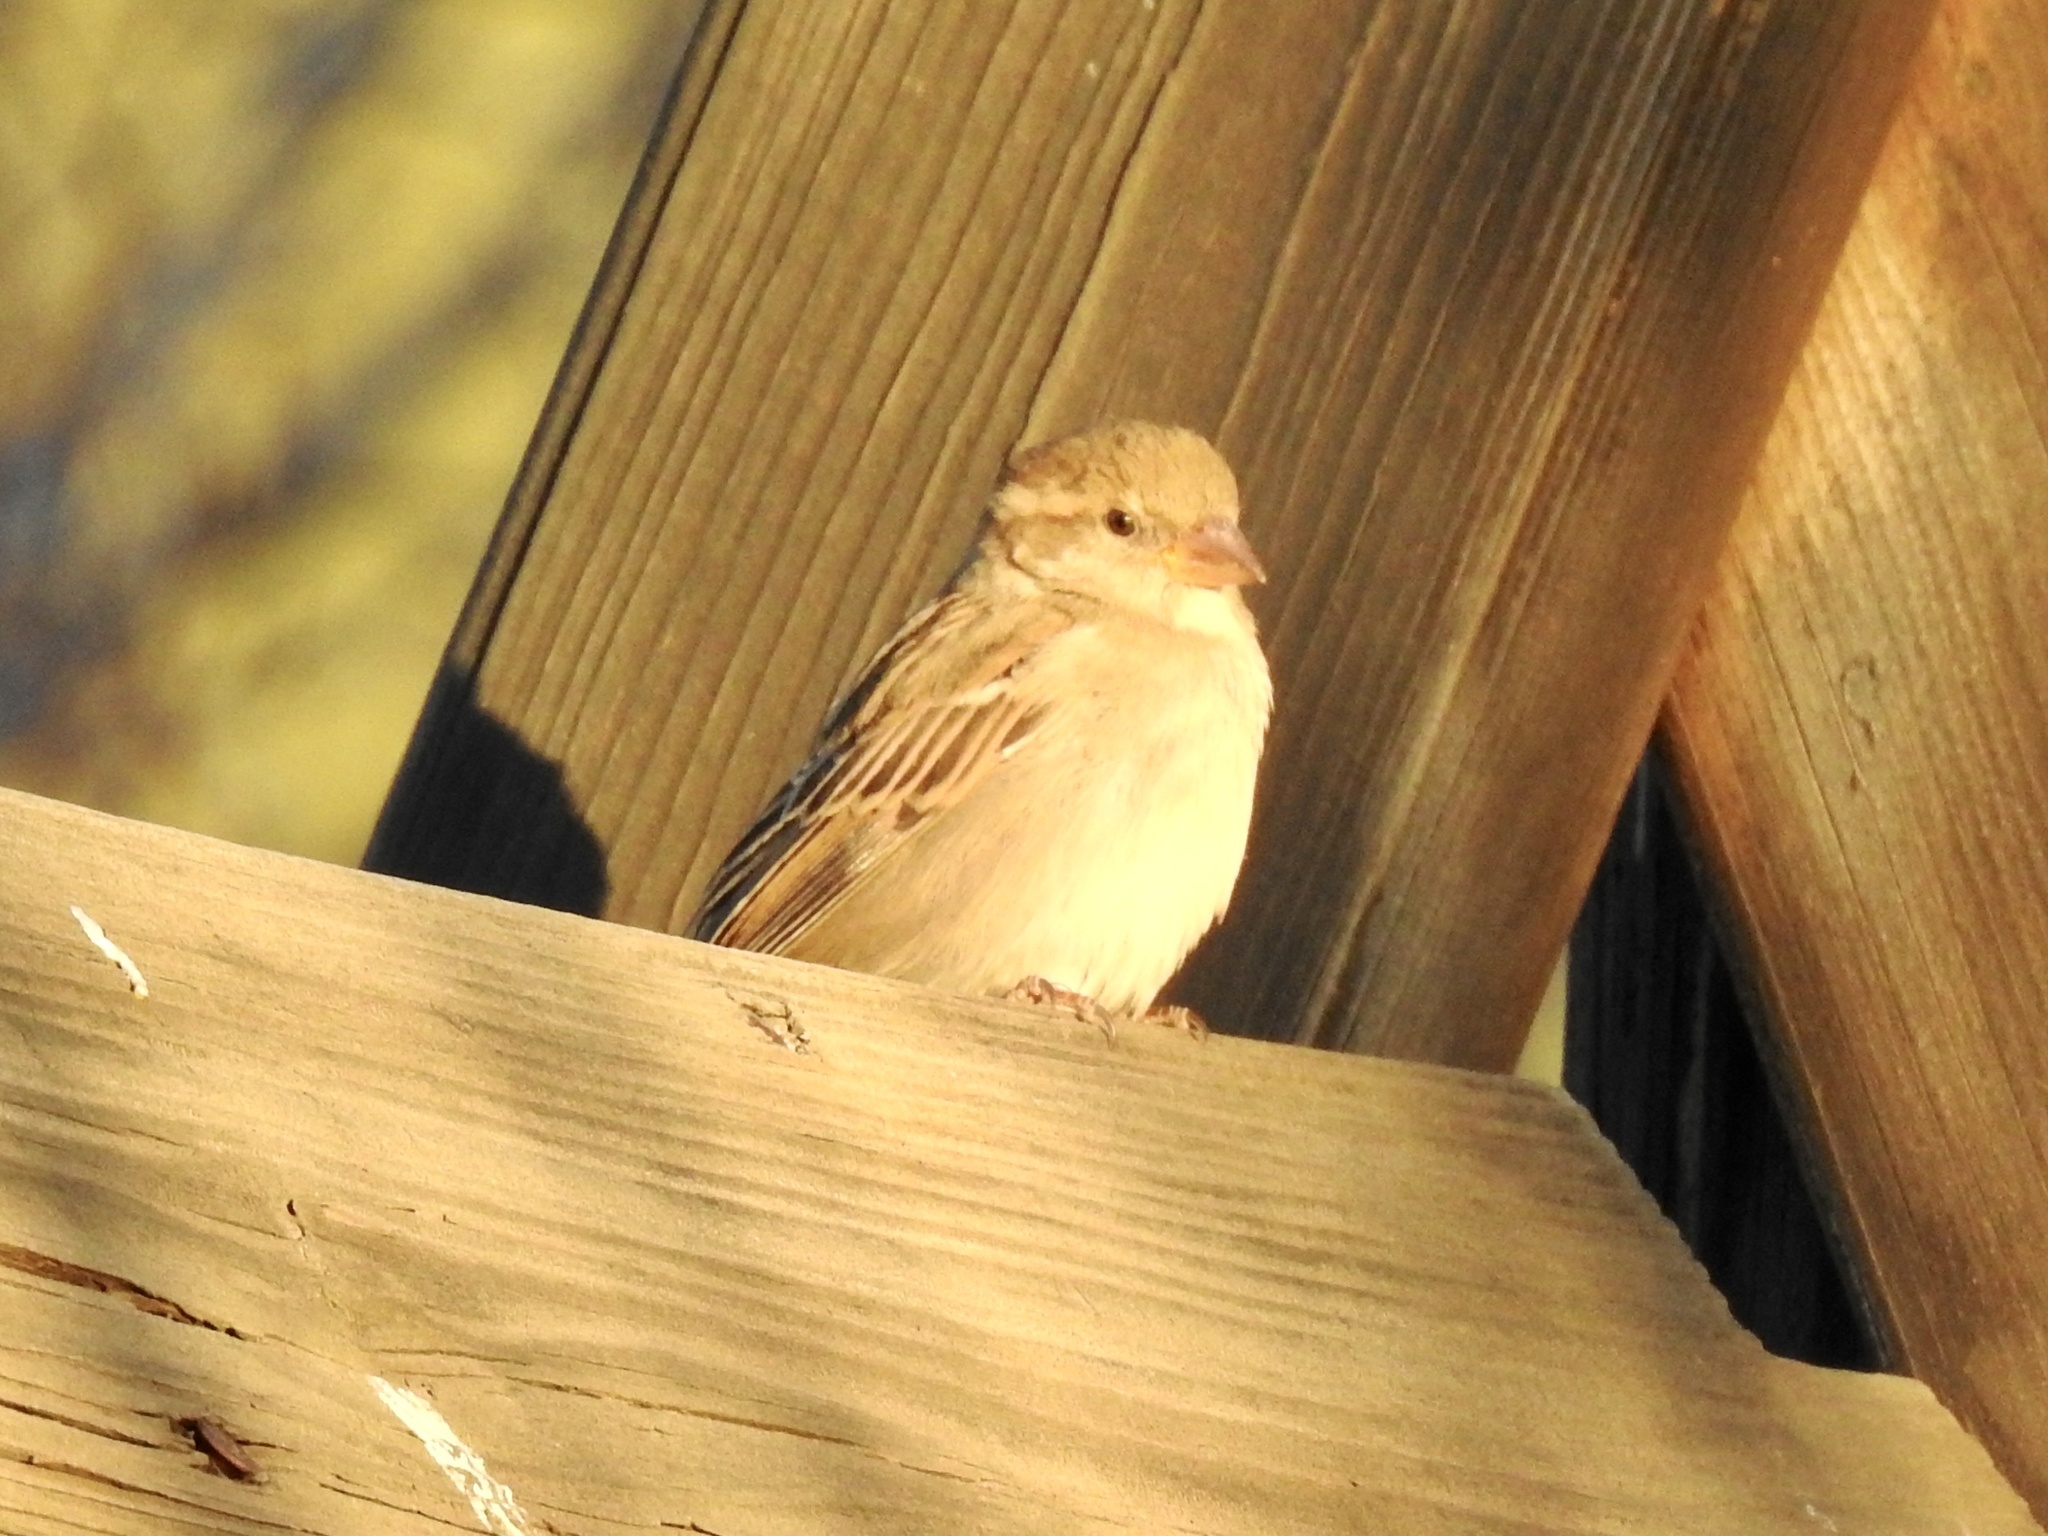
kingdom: Animalia
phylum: Chordata
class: Aves
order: Passeriformes
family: Passeridae
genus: Passer
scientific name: Passer domesticus
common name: House sparrow
